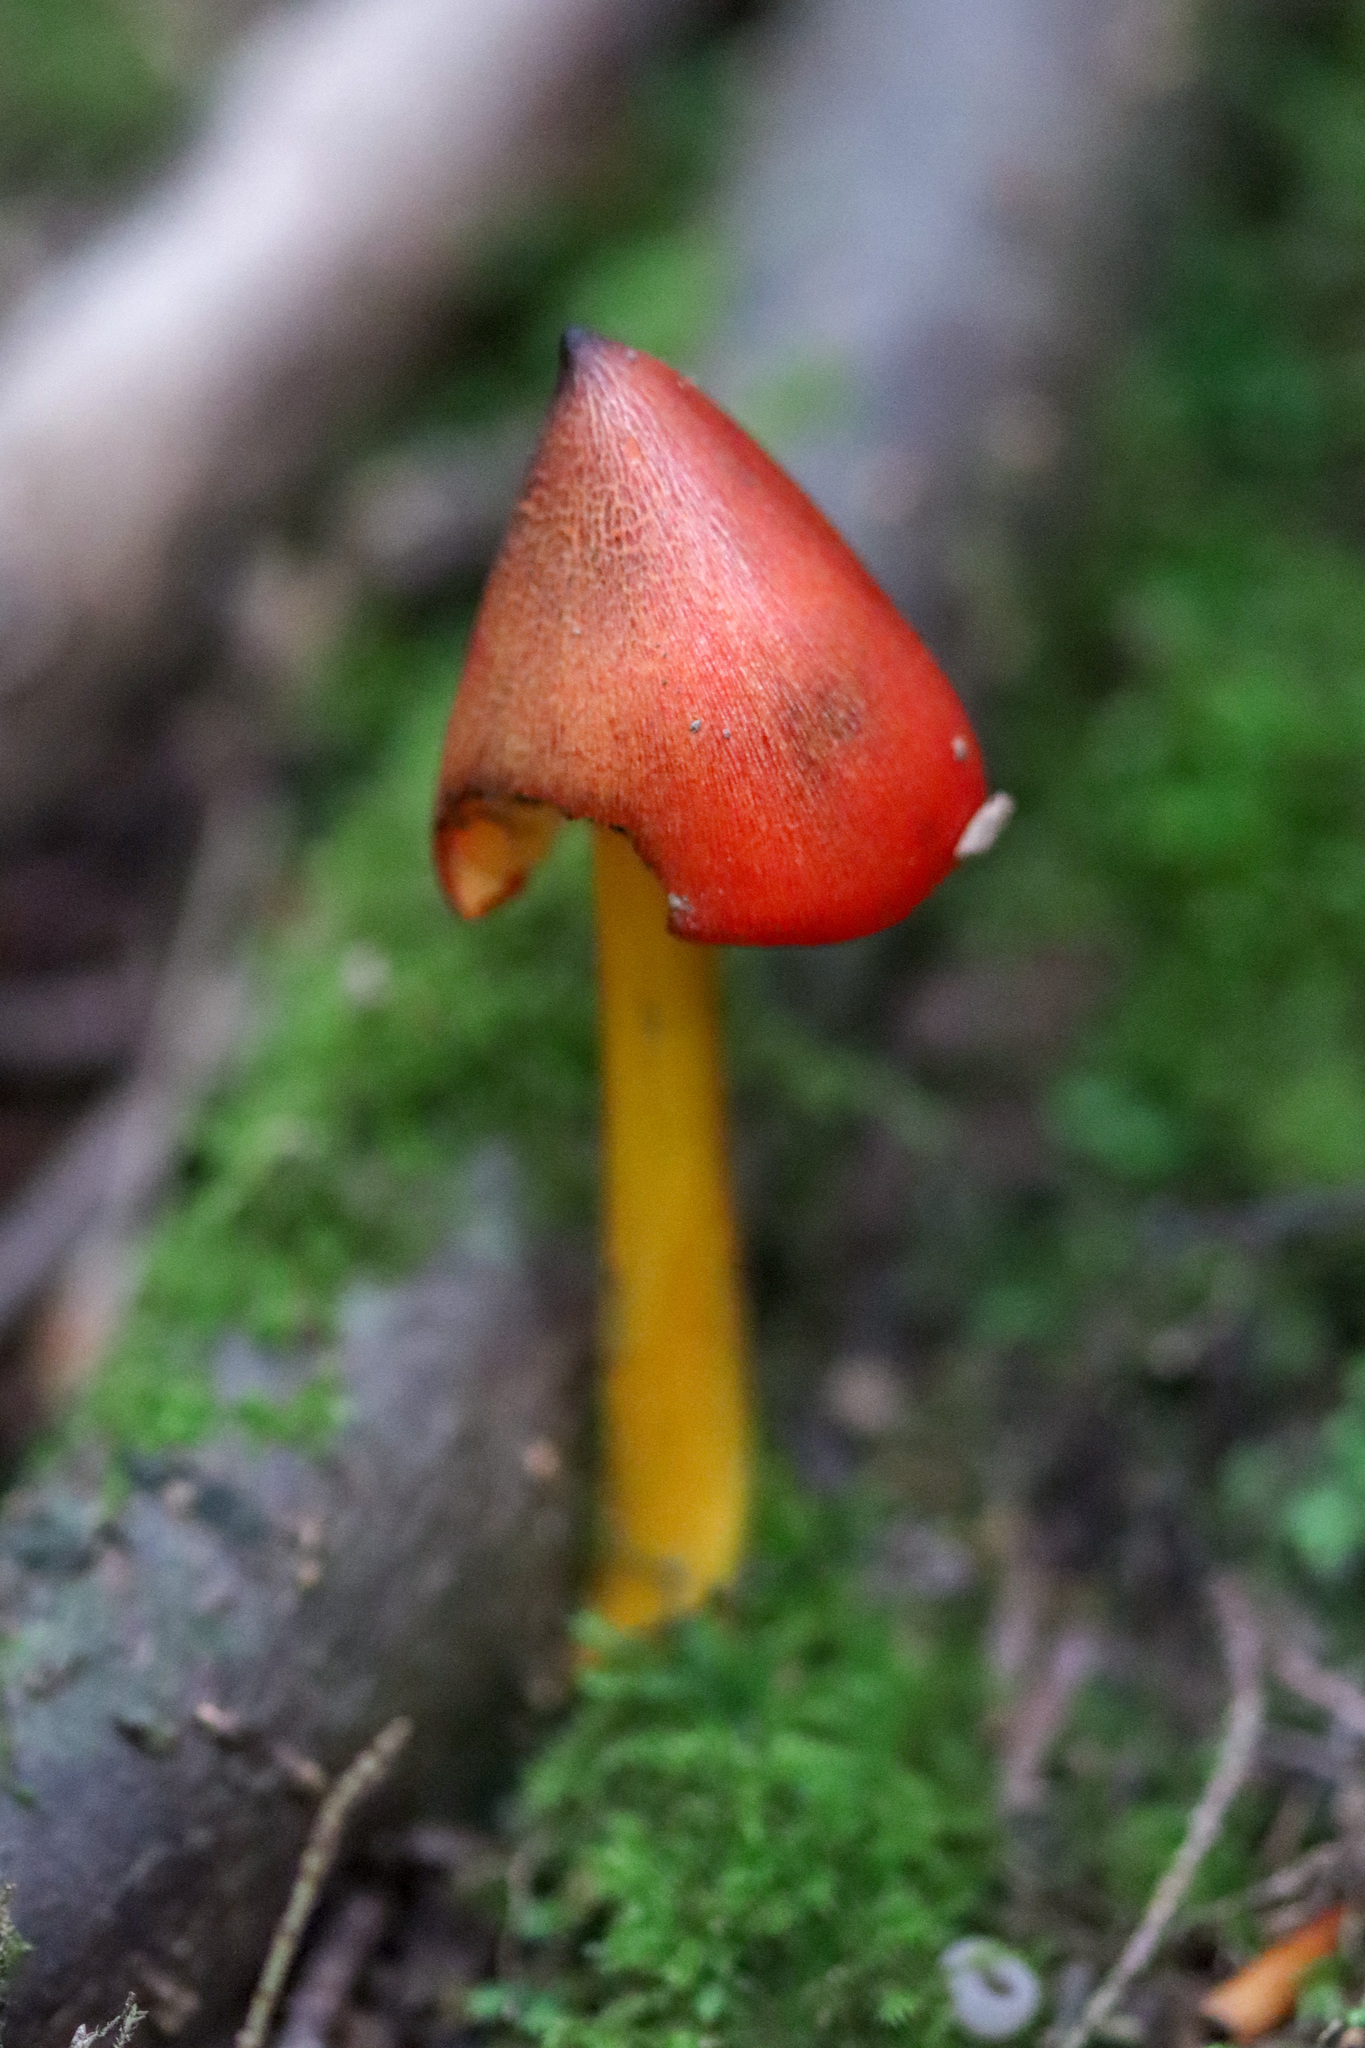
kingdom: Fungi
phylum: Basidiomycota
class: Agaricomycetes
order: Agaricales
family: Hygrophoraceae
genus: Hygrocybe
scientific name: Hygrocybe conica
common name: Blackening wax-cap
